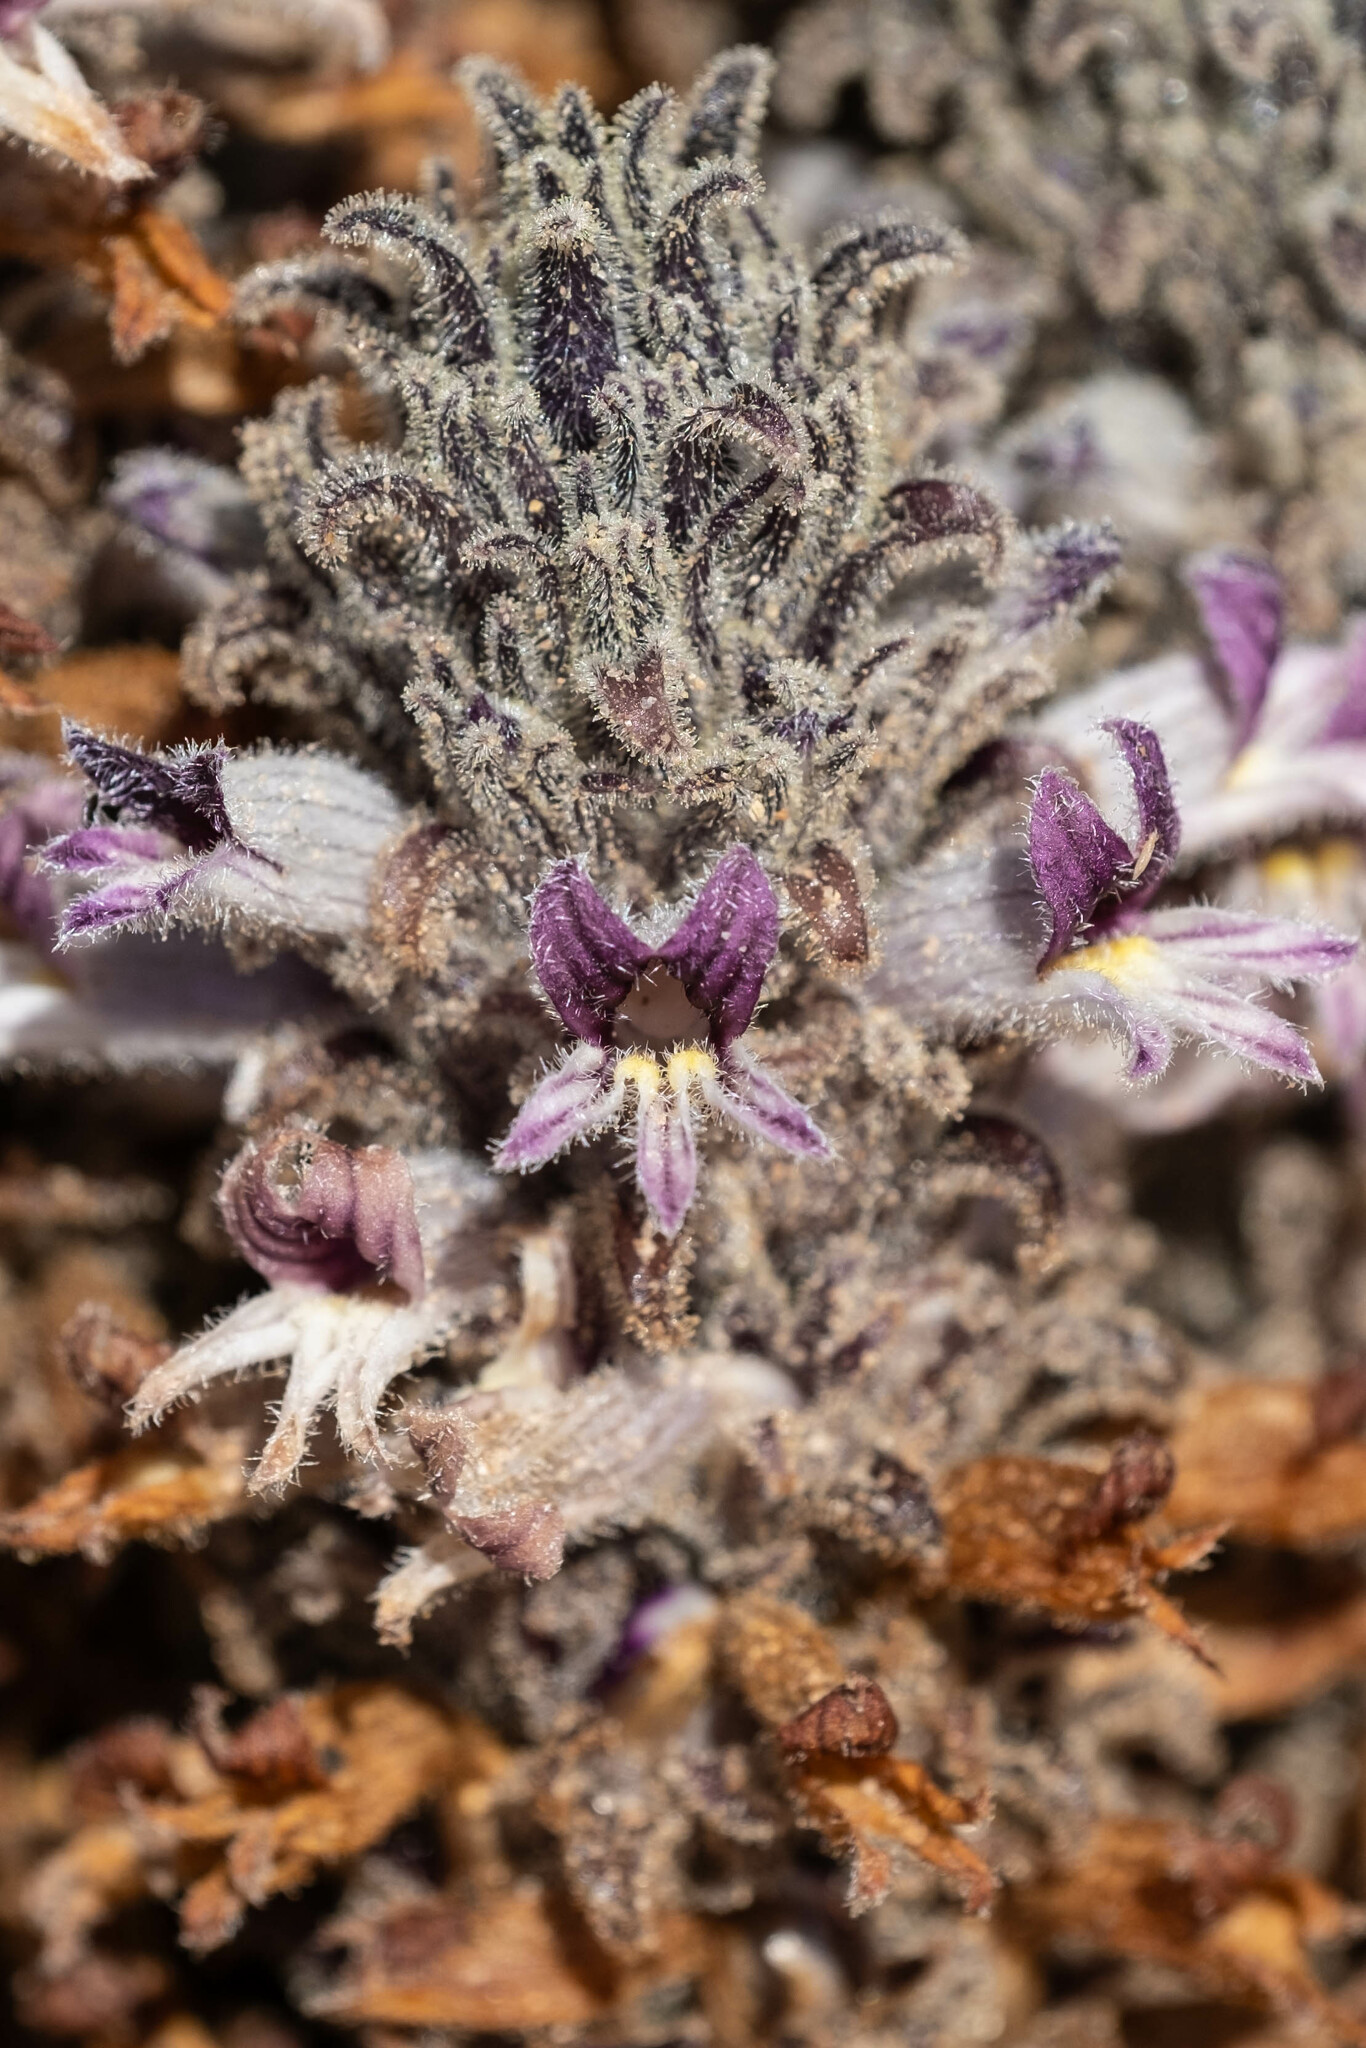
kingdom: Plantae
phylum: Tracheophyta
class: Magnoliopsida
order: Lamiales
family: Orobanchaceae
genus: Aphyllon
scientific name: Aphyllon cooperi
